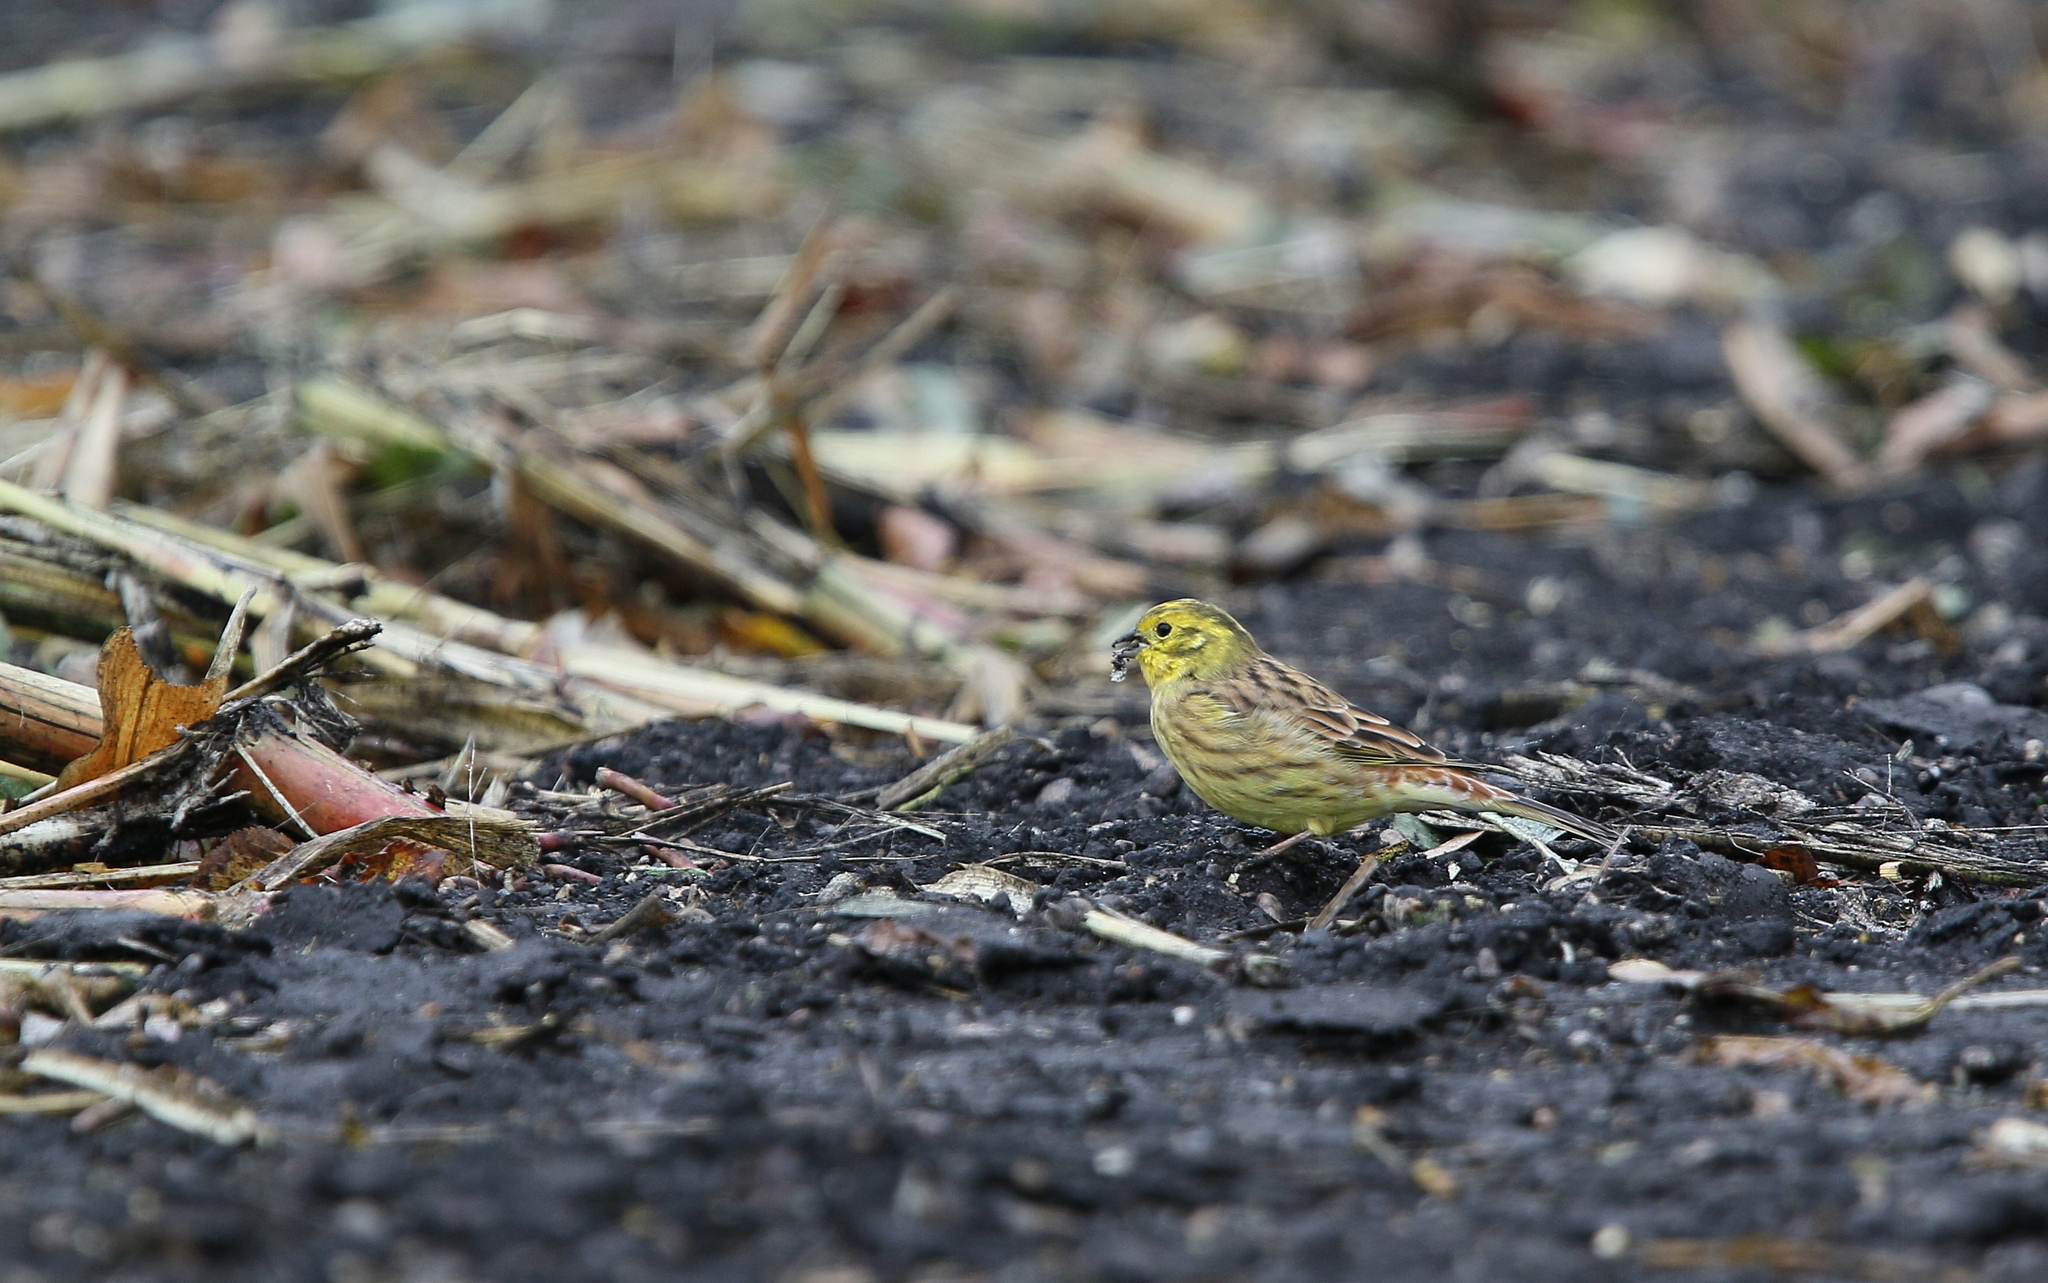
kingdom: Animalia
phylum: Chordata
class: Aves
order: Passeriformes
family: Emberizidae
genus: Emberiza
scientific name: Emberiza citrinella
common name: Yellowhammer
